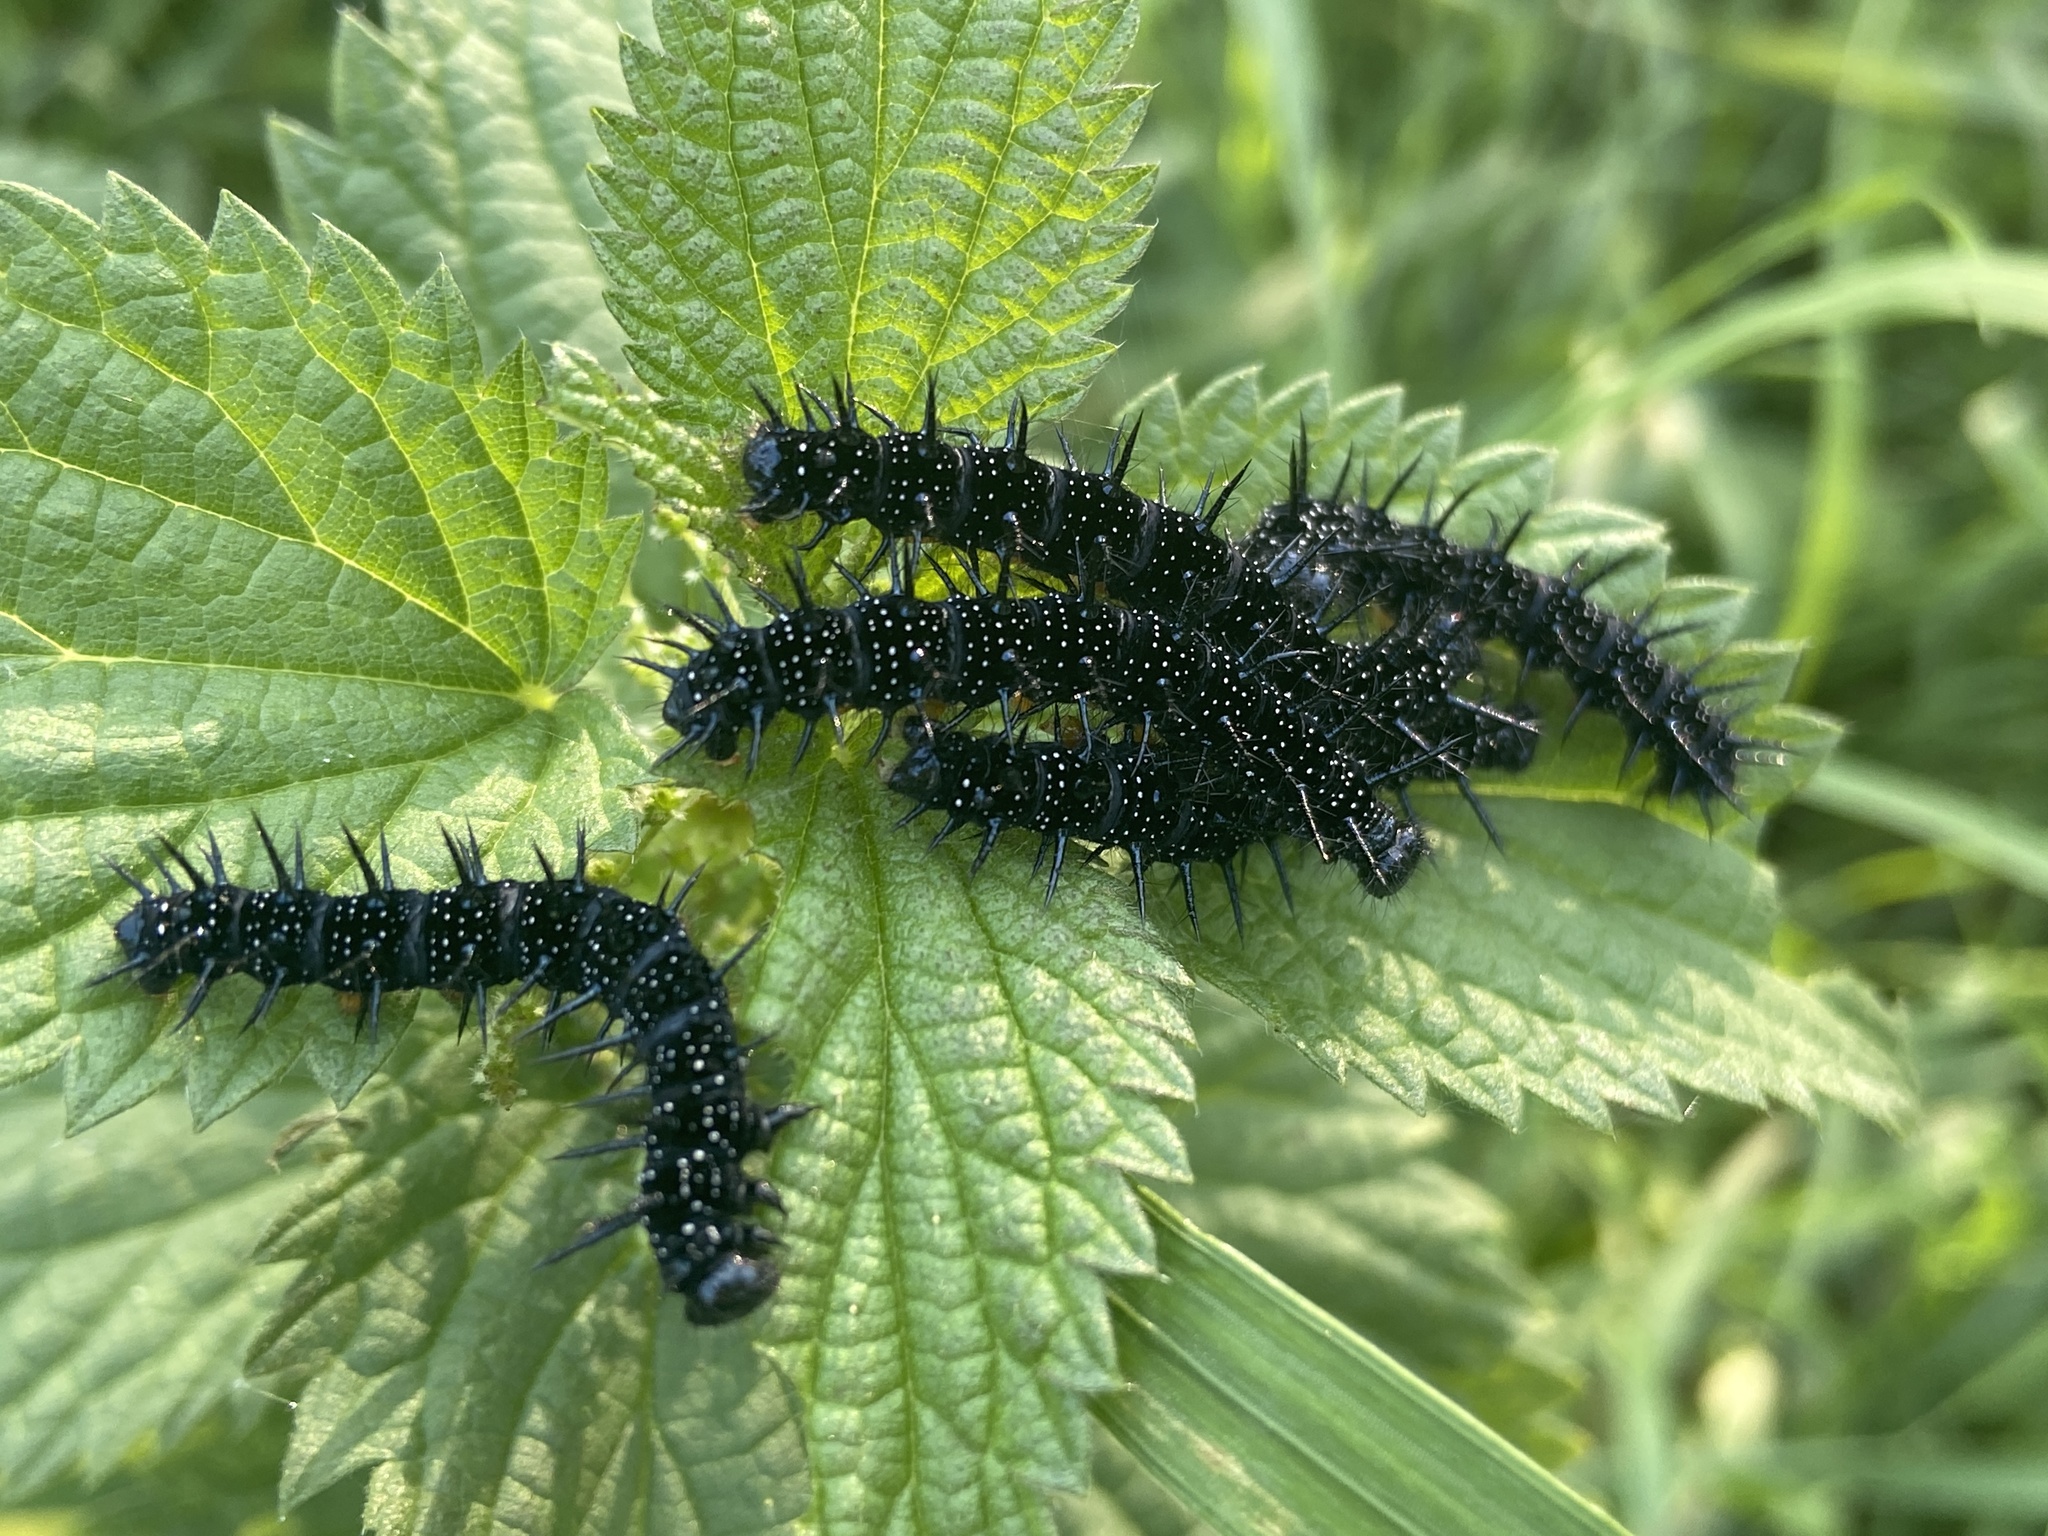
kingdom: Animalia
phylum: Arthropoda
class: Insecta
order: Lepidoptera
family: Nymphalidae
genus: Aglais
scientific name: Aglais io
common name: Peacock
